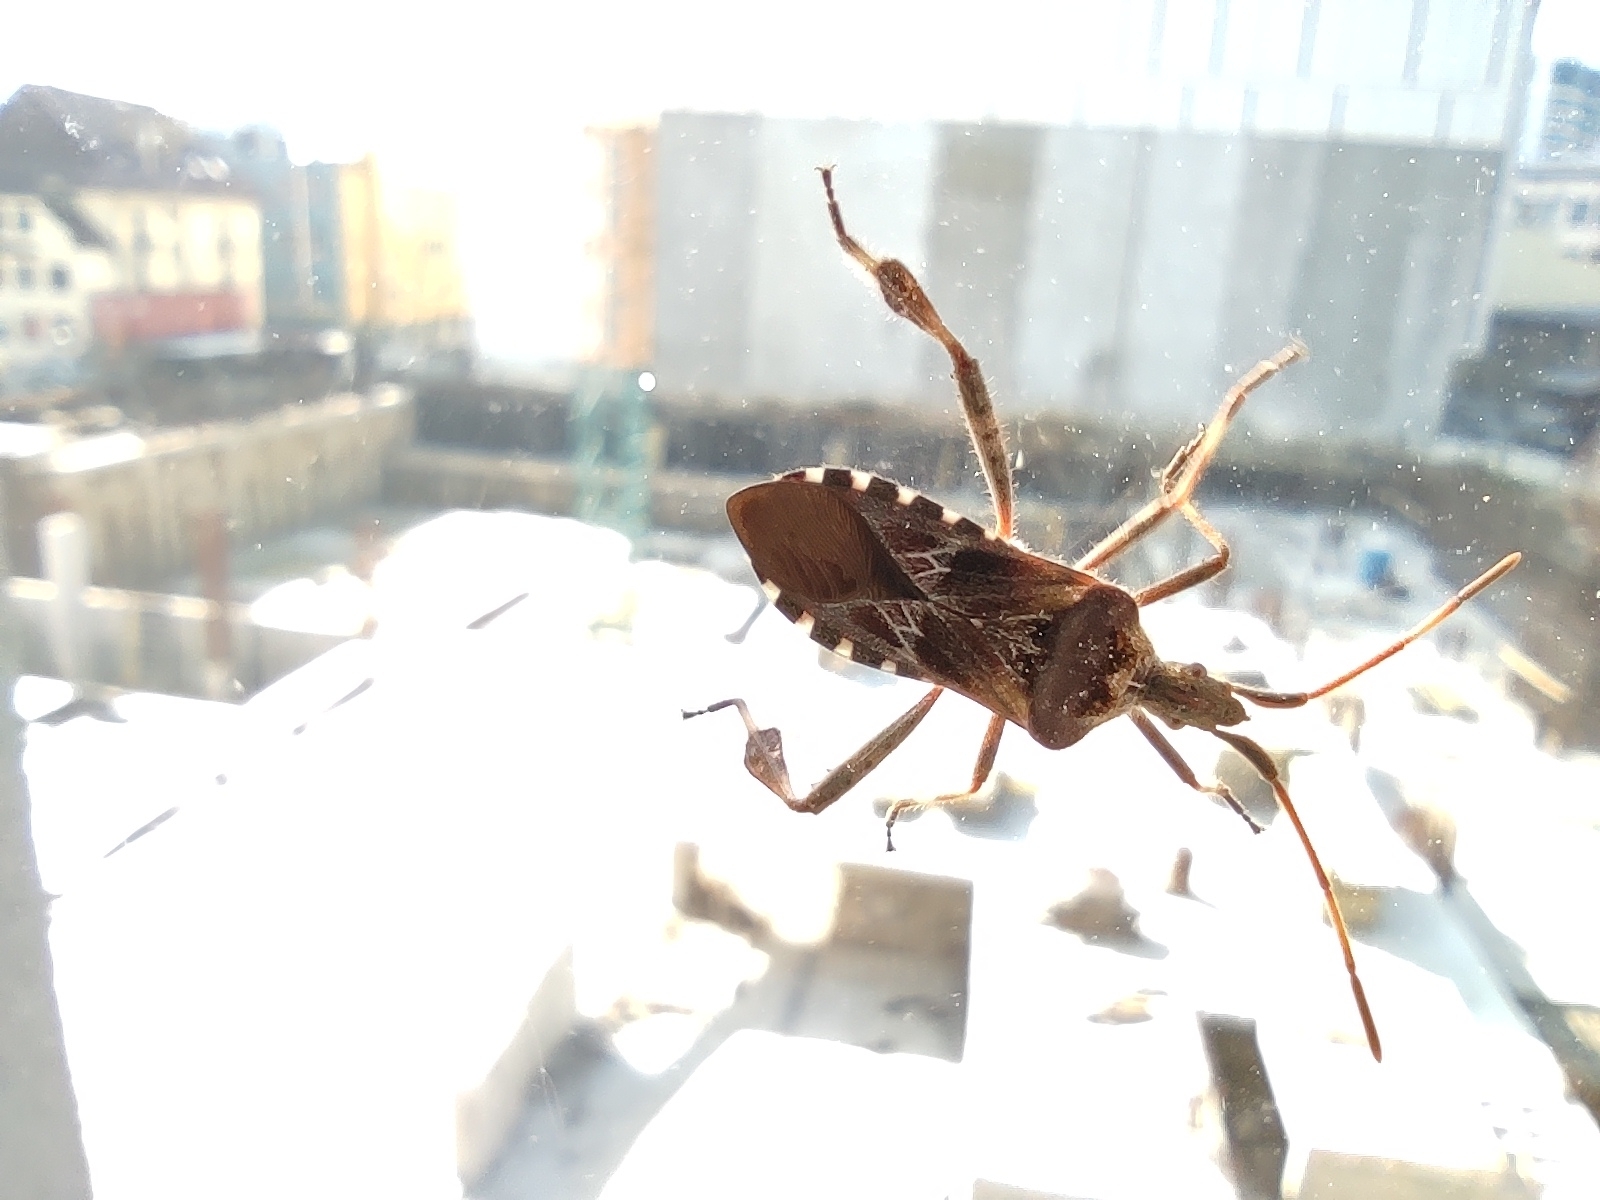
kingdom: Animalia
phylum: Arthropoda
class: Insecta
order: Hemiptera
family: Coreidae
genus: Leptoglossus
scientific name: Leptoglossus occidentalis
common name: Western conifer-seed bug
